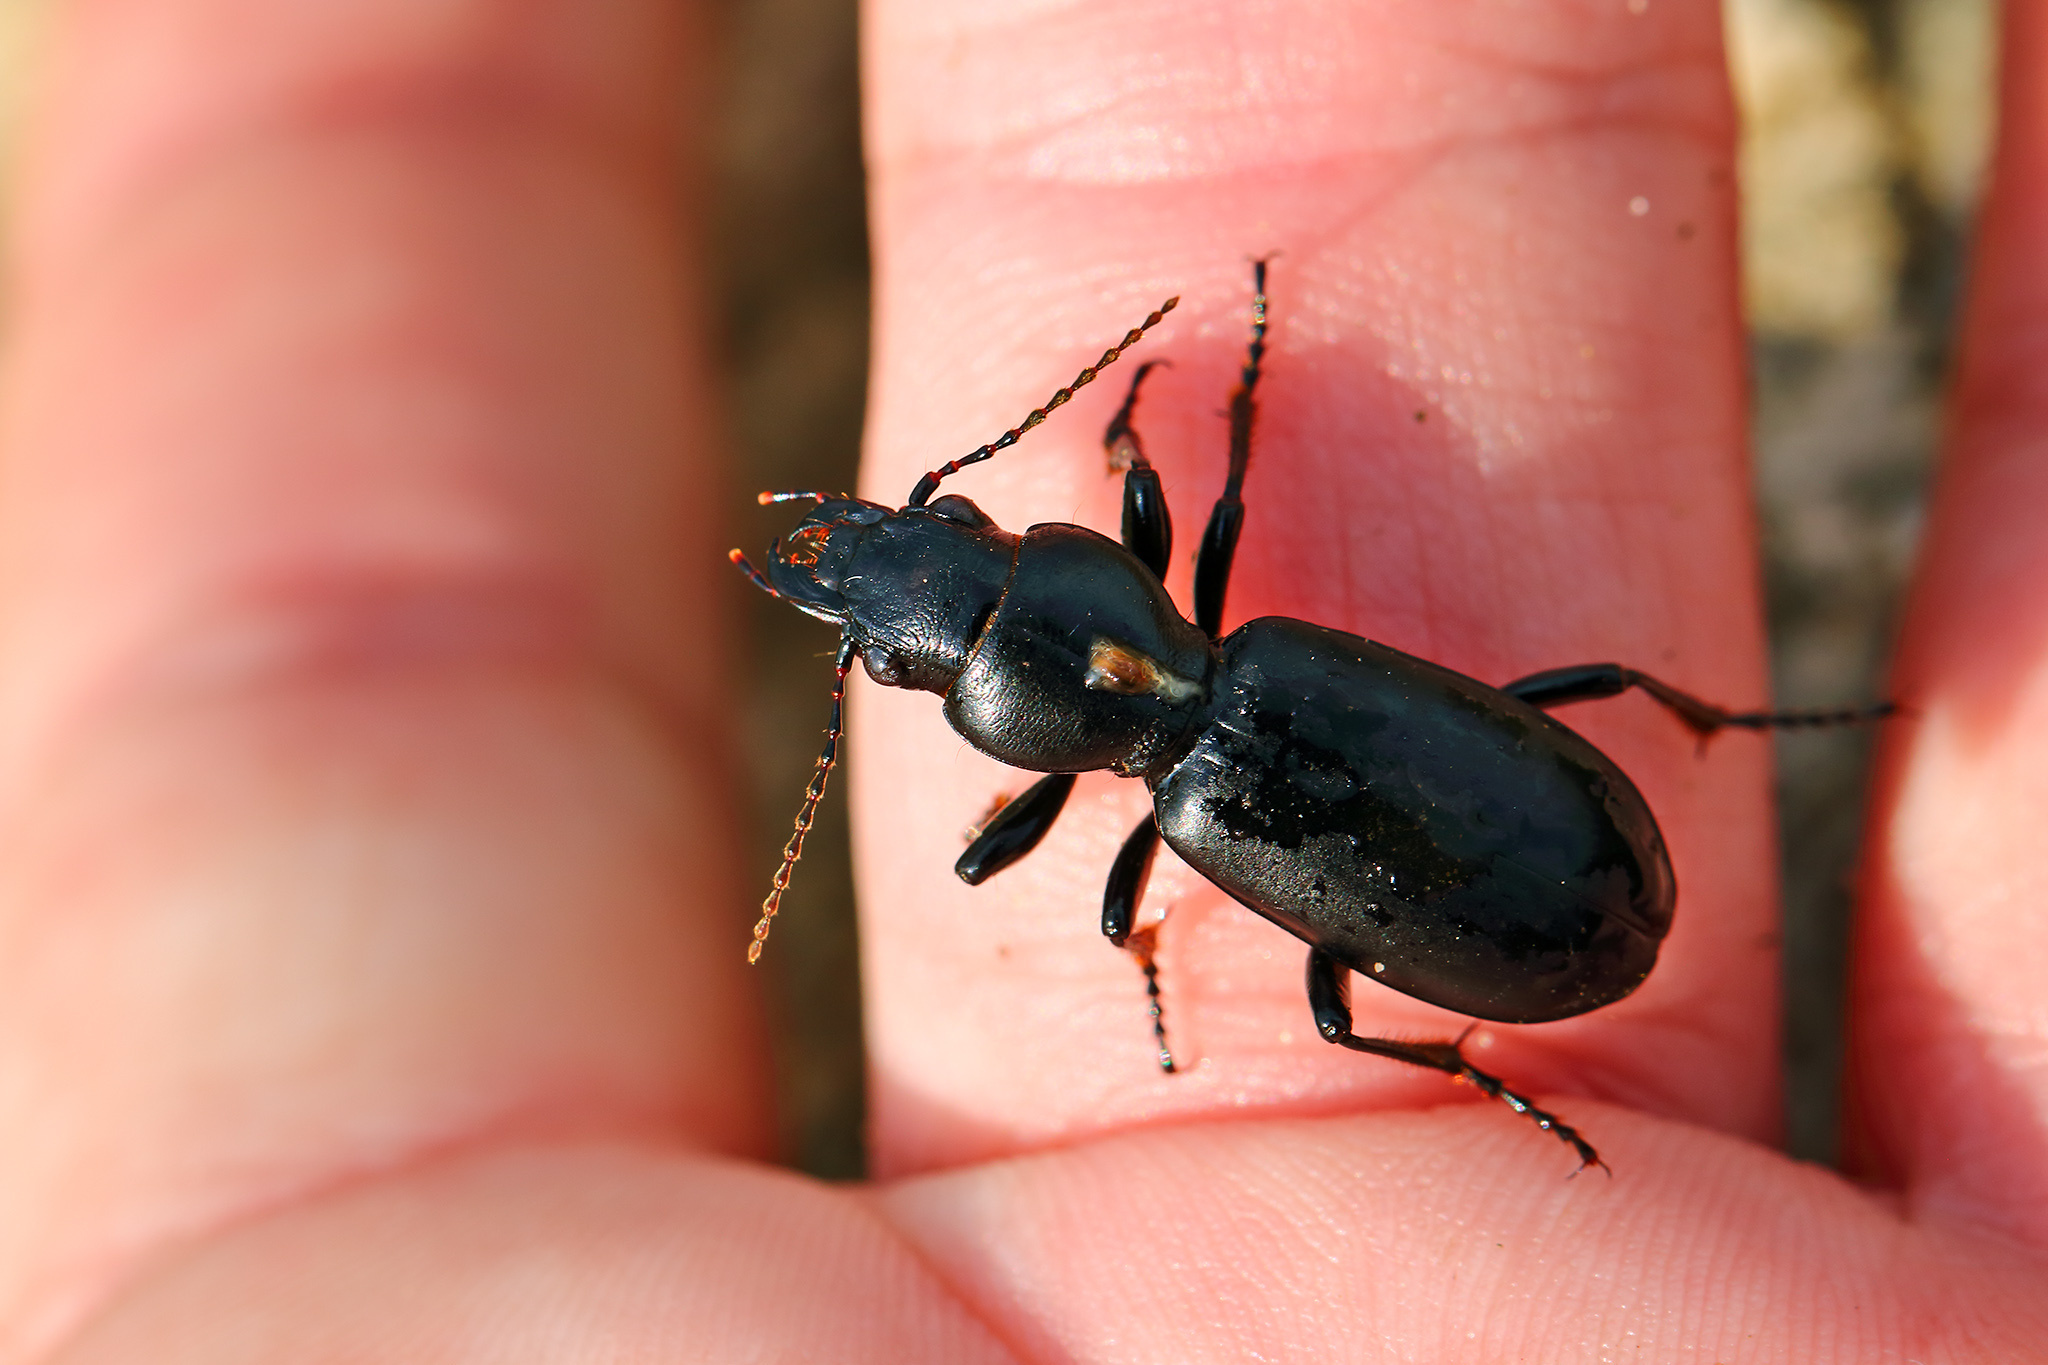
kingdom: Animalia
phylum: Arthropoda
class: Insecta
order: Coleoptera
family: Carabidae
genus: Broscus
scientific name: Broscus cephalotes
